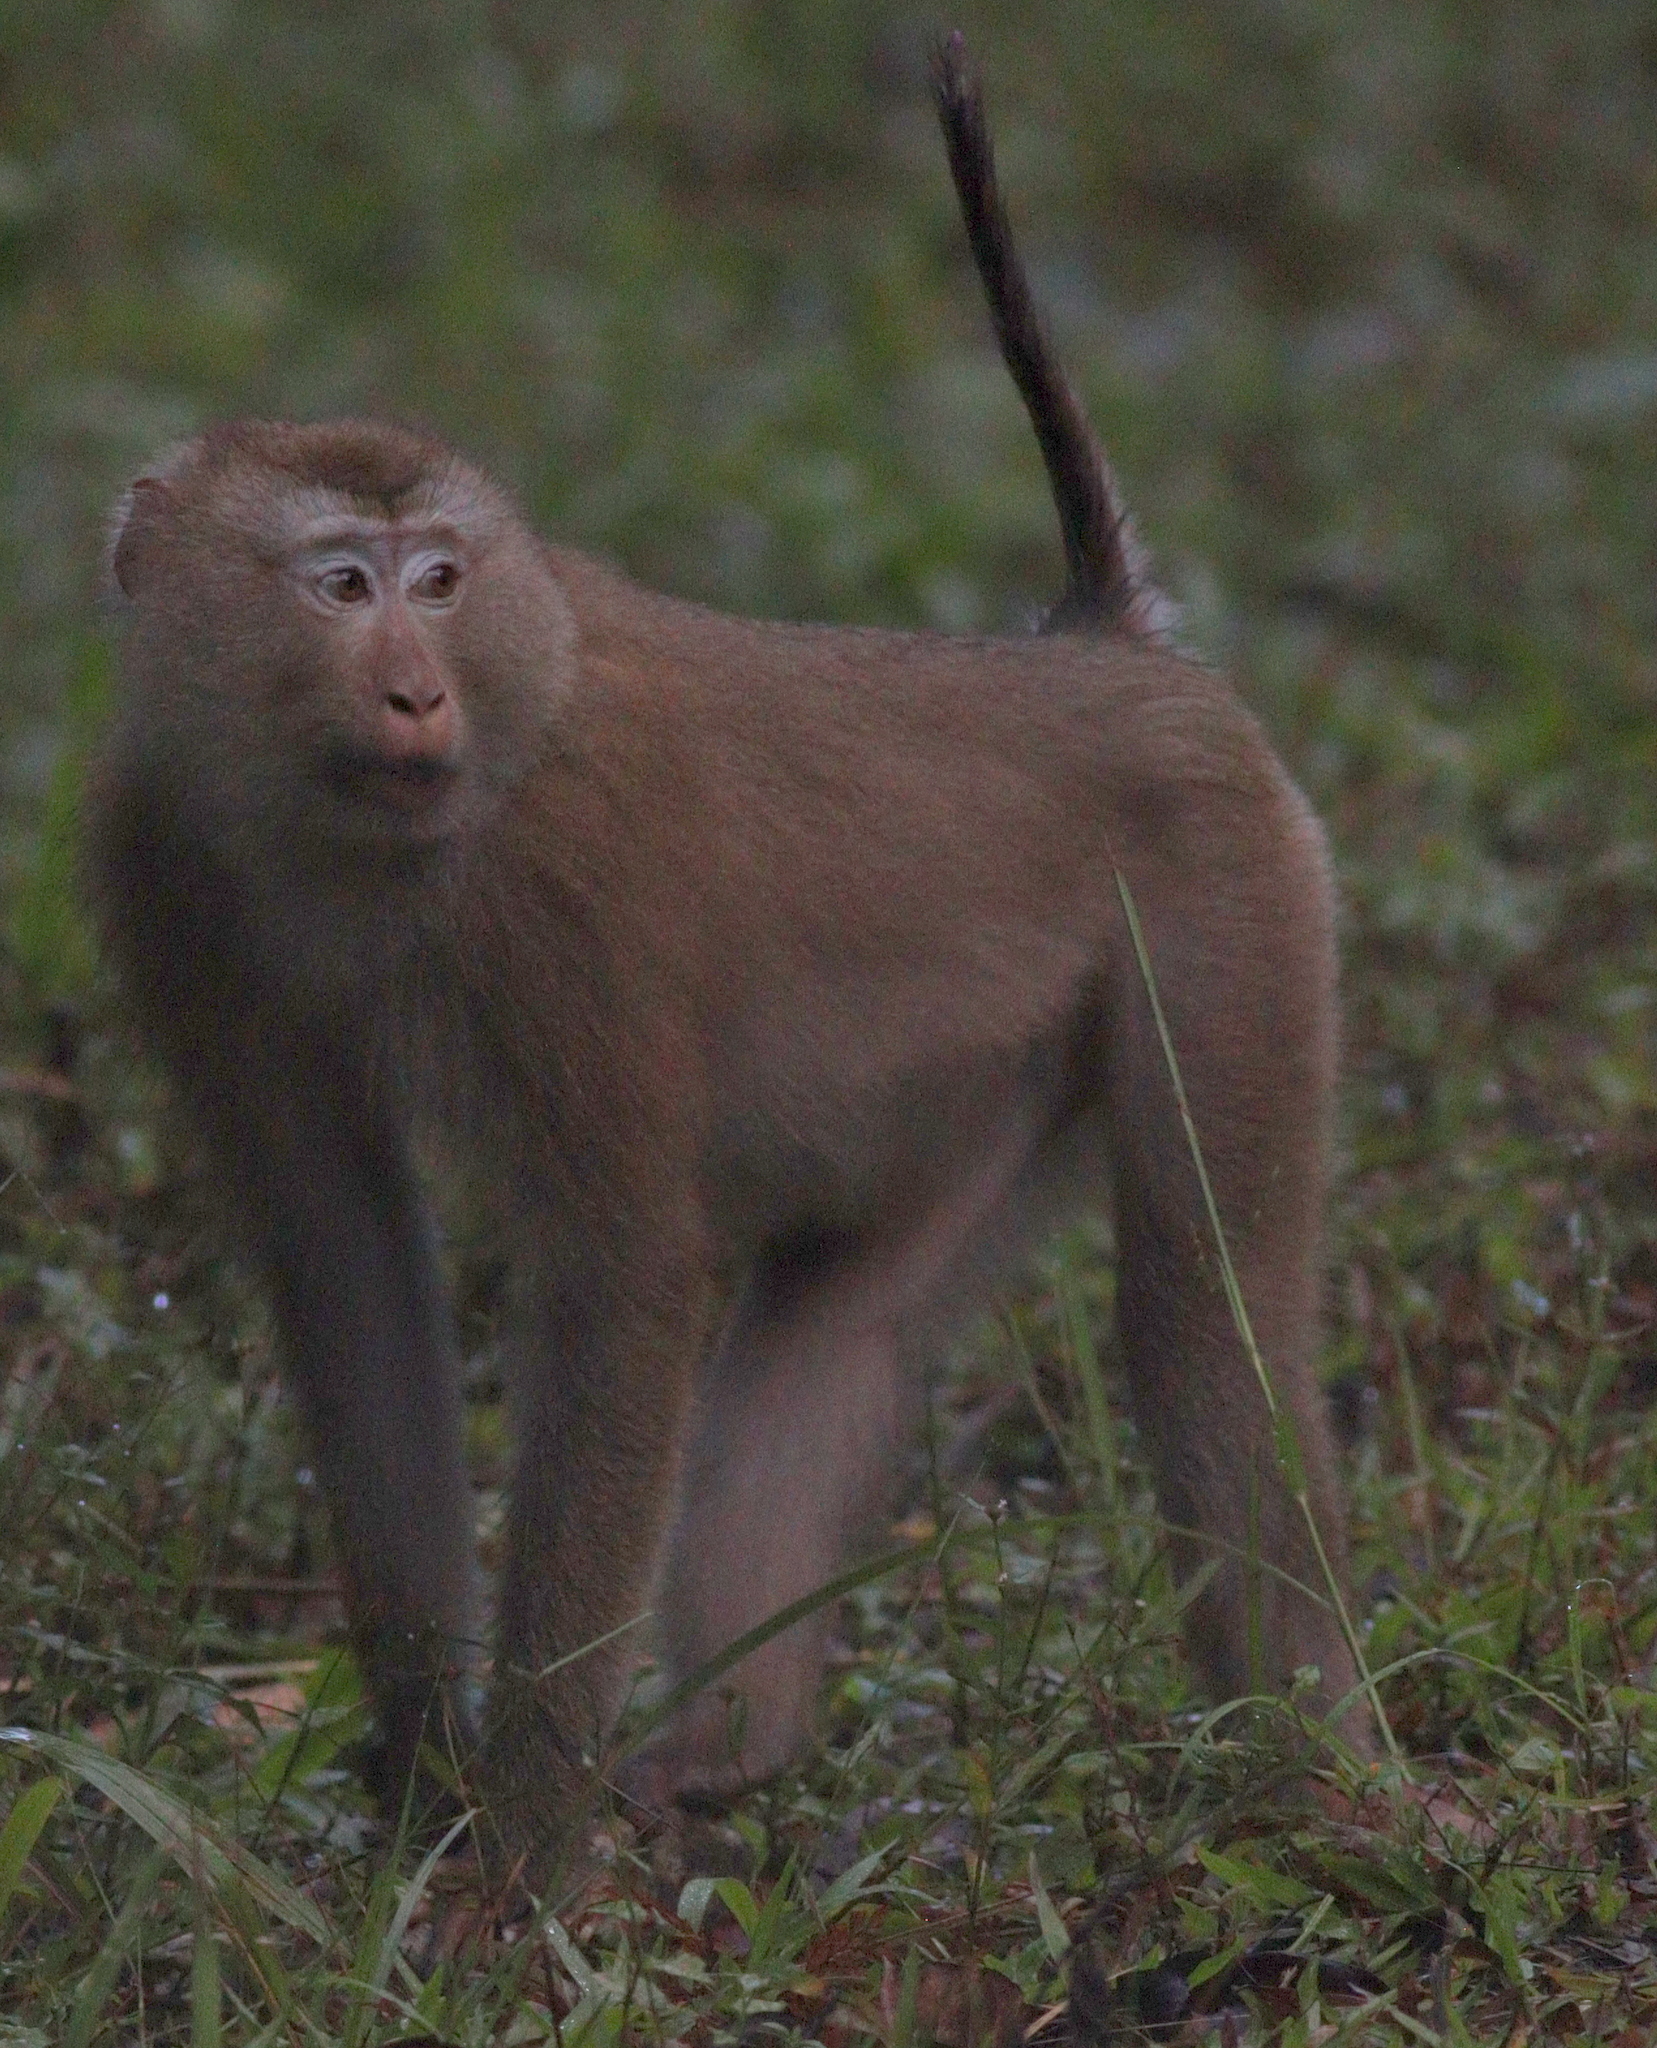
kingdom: Animalia
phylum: Chordata
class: Mammalia
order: Primates
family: Cercopithecidae
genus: Macaca
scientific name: Macaca leonina
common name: Northern pig-tailed macaque
